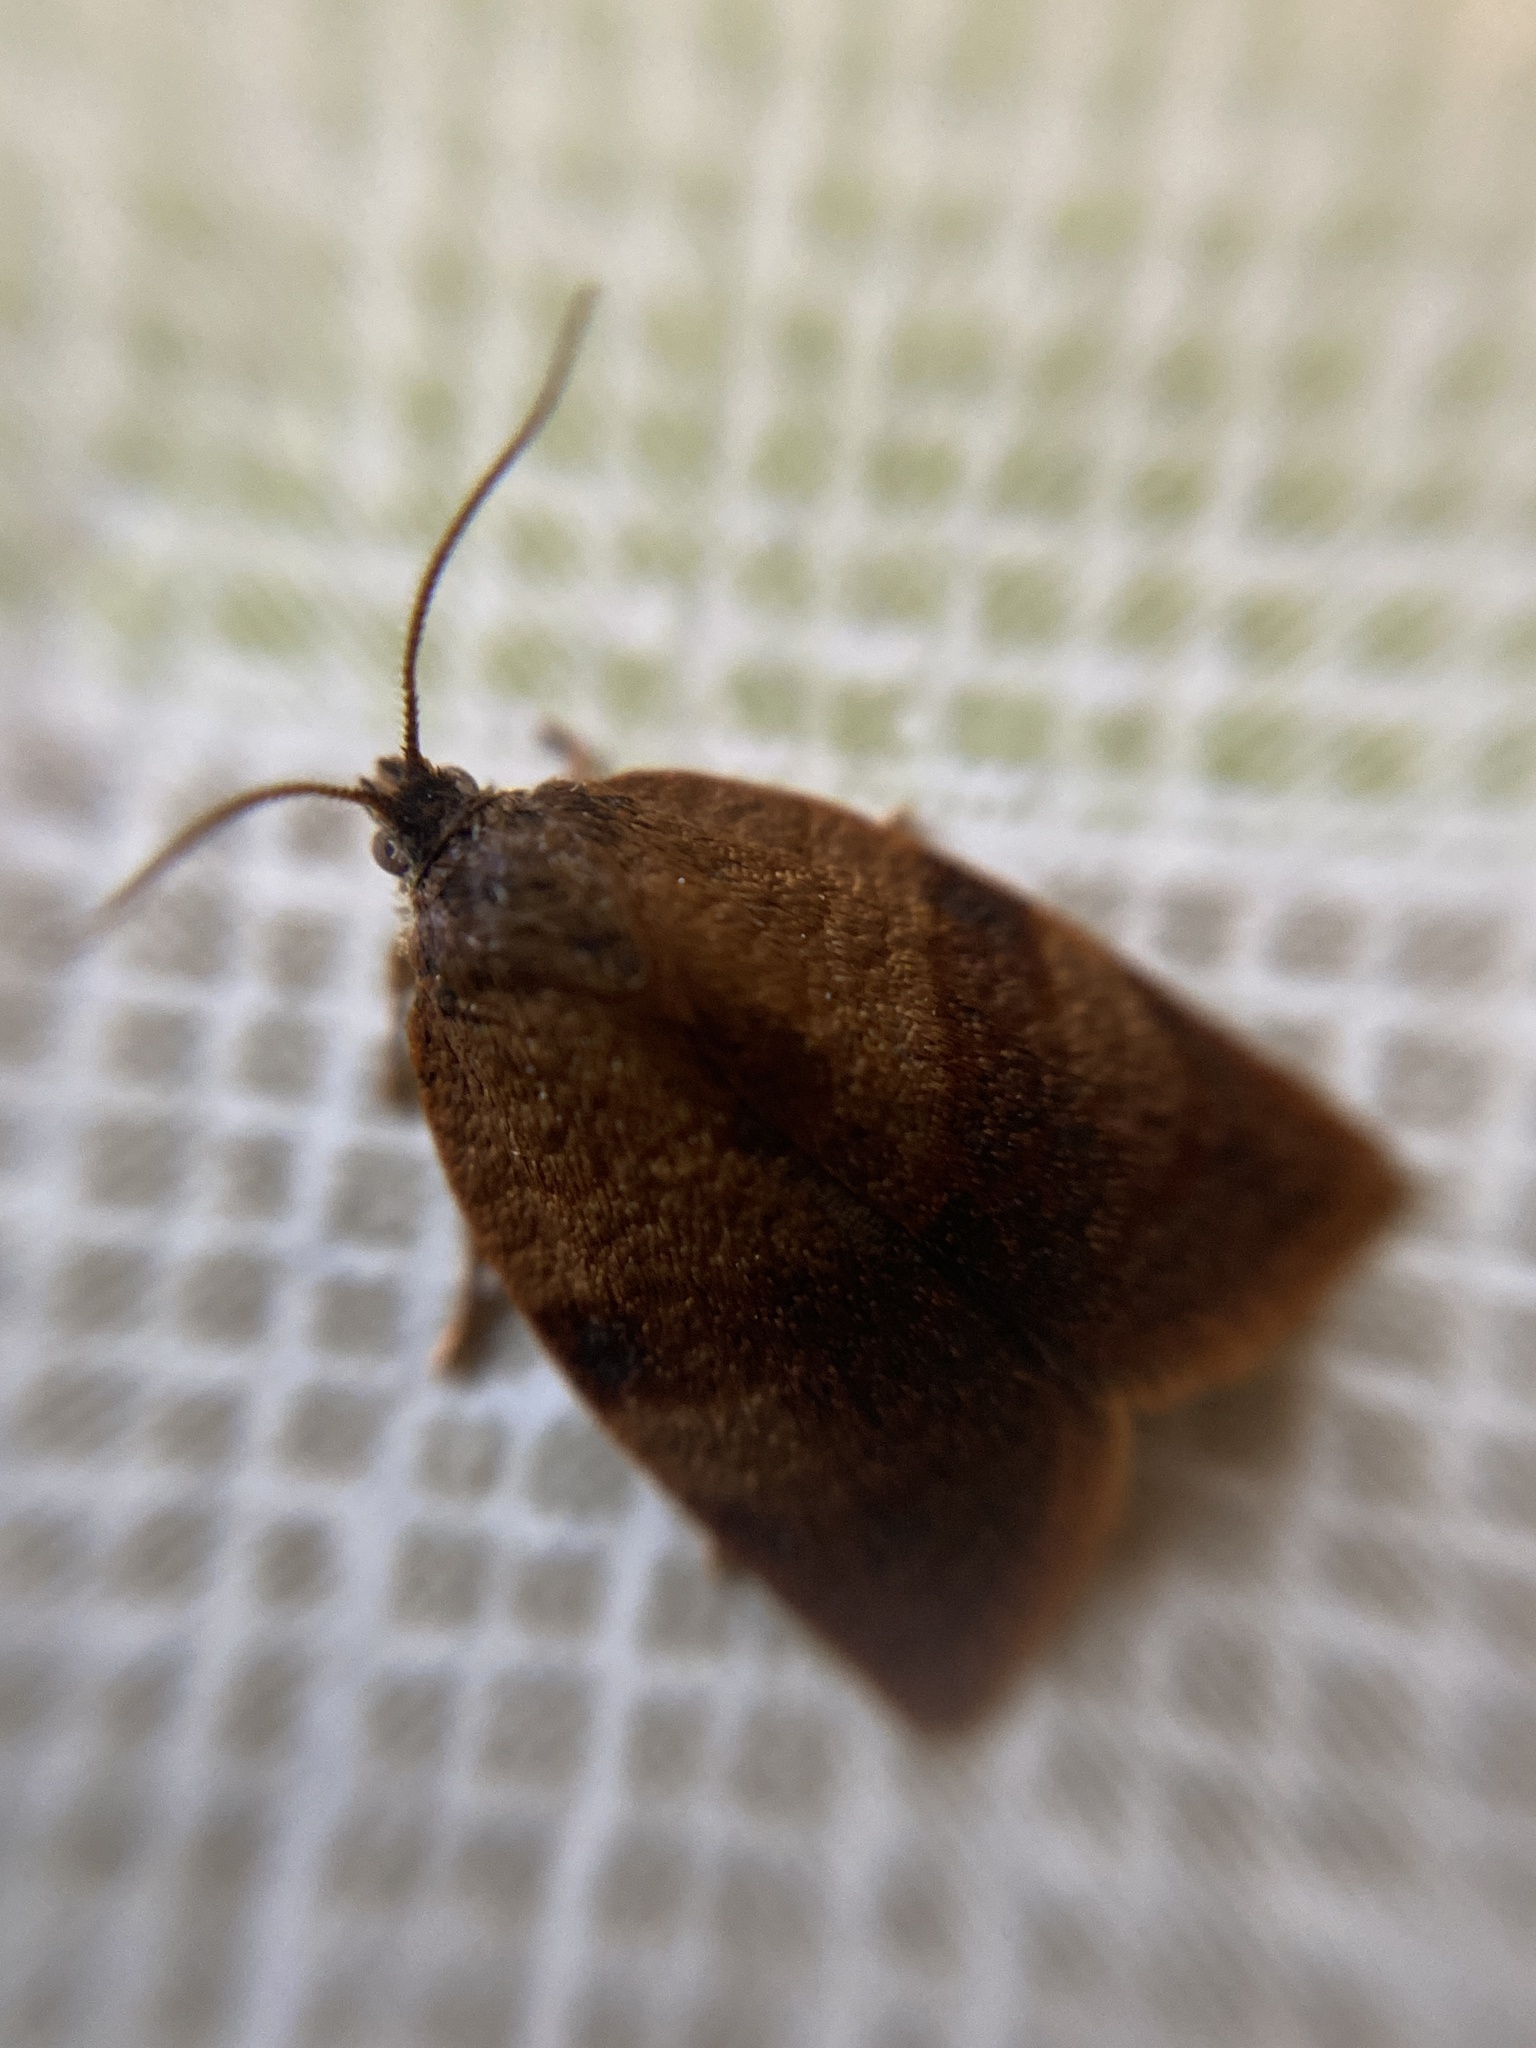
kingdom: Animalia
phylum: Arthropoda
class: Insecta
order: Lepidoptera
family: Tortricidae
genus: Cacoecimorpha
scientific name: Cacoecimorpha pronubana
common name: Carnation tortrix
